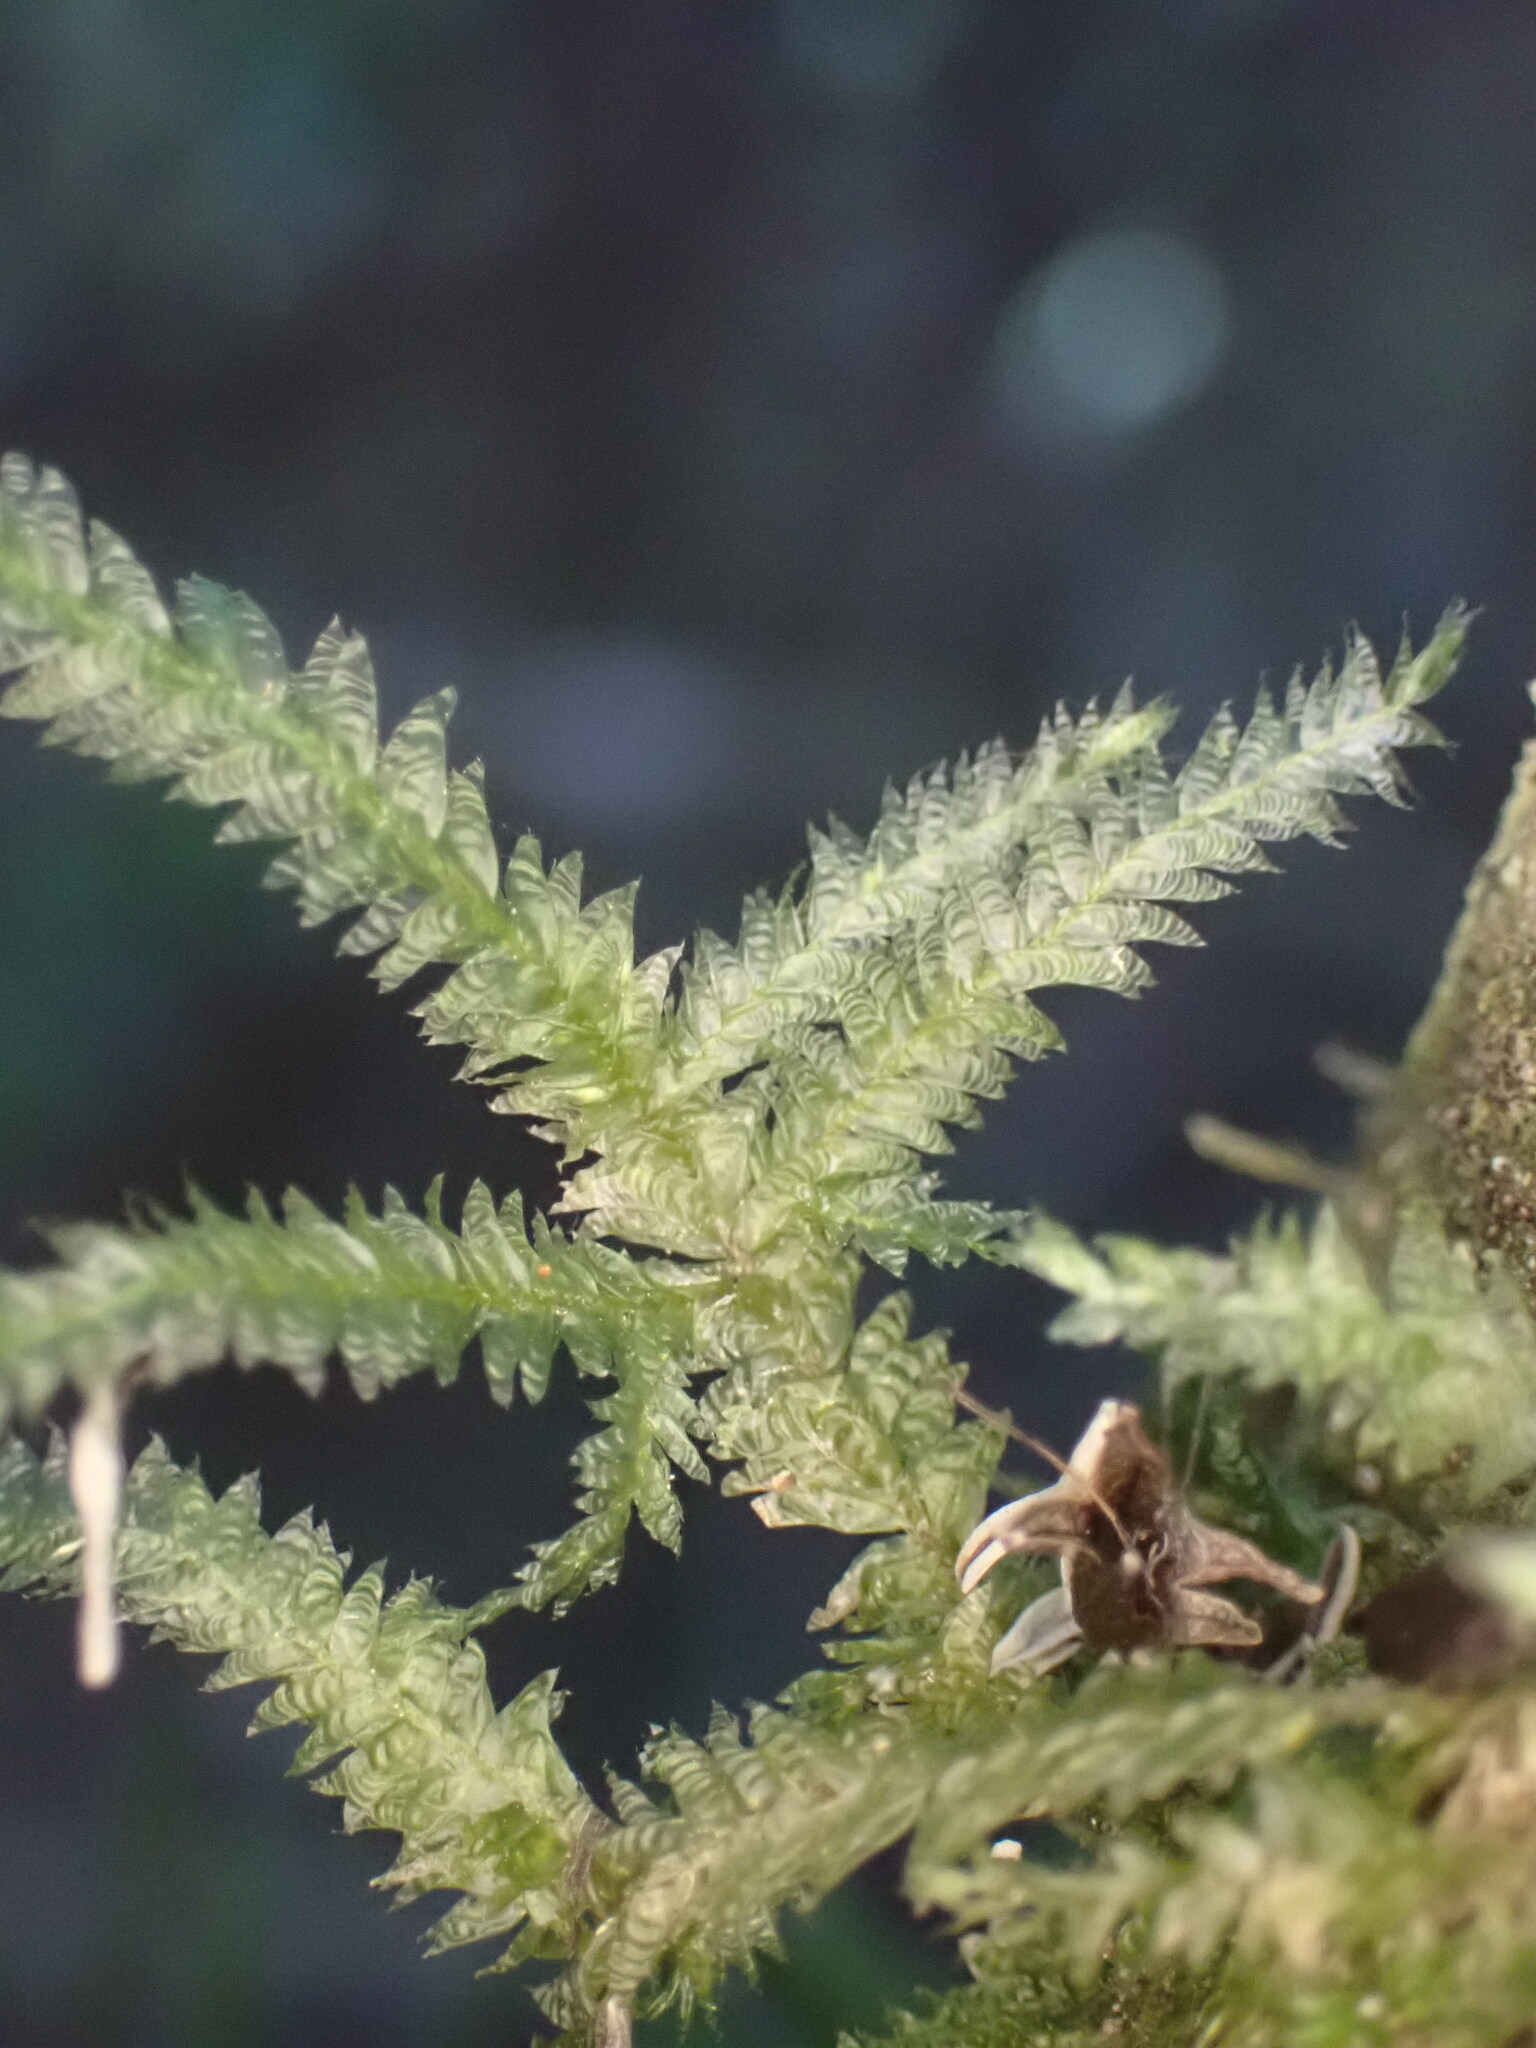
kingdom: Plantae
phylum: Bryophyta
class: Bryopsida
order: Hypnales
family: Neckeraceae
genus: Alleniella
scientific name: Alleniella hymenodonta
